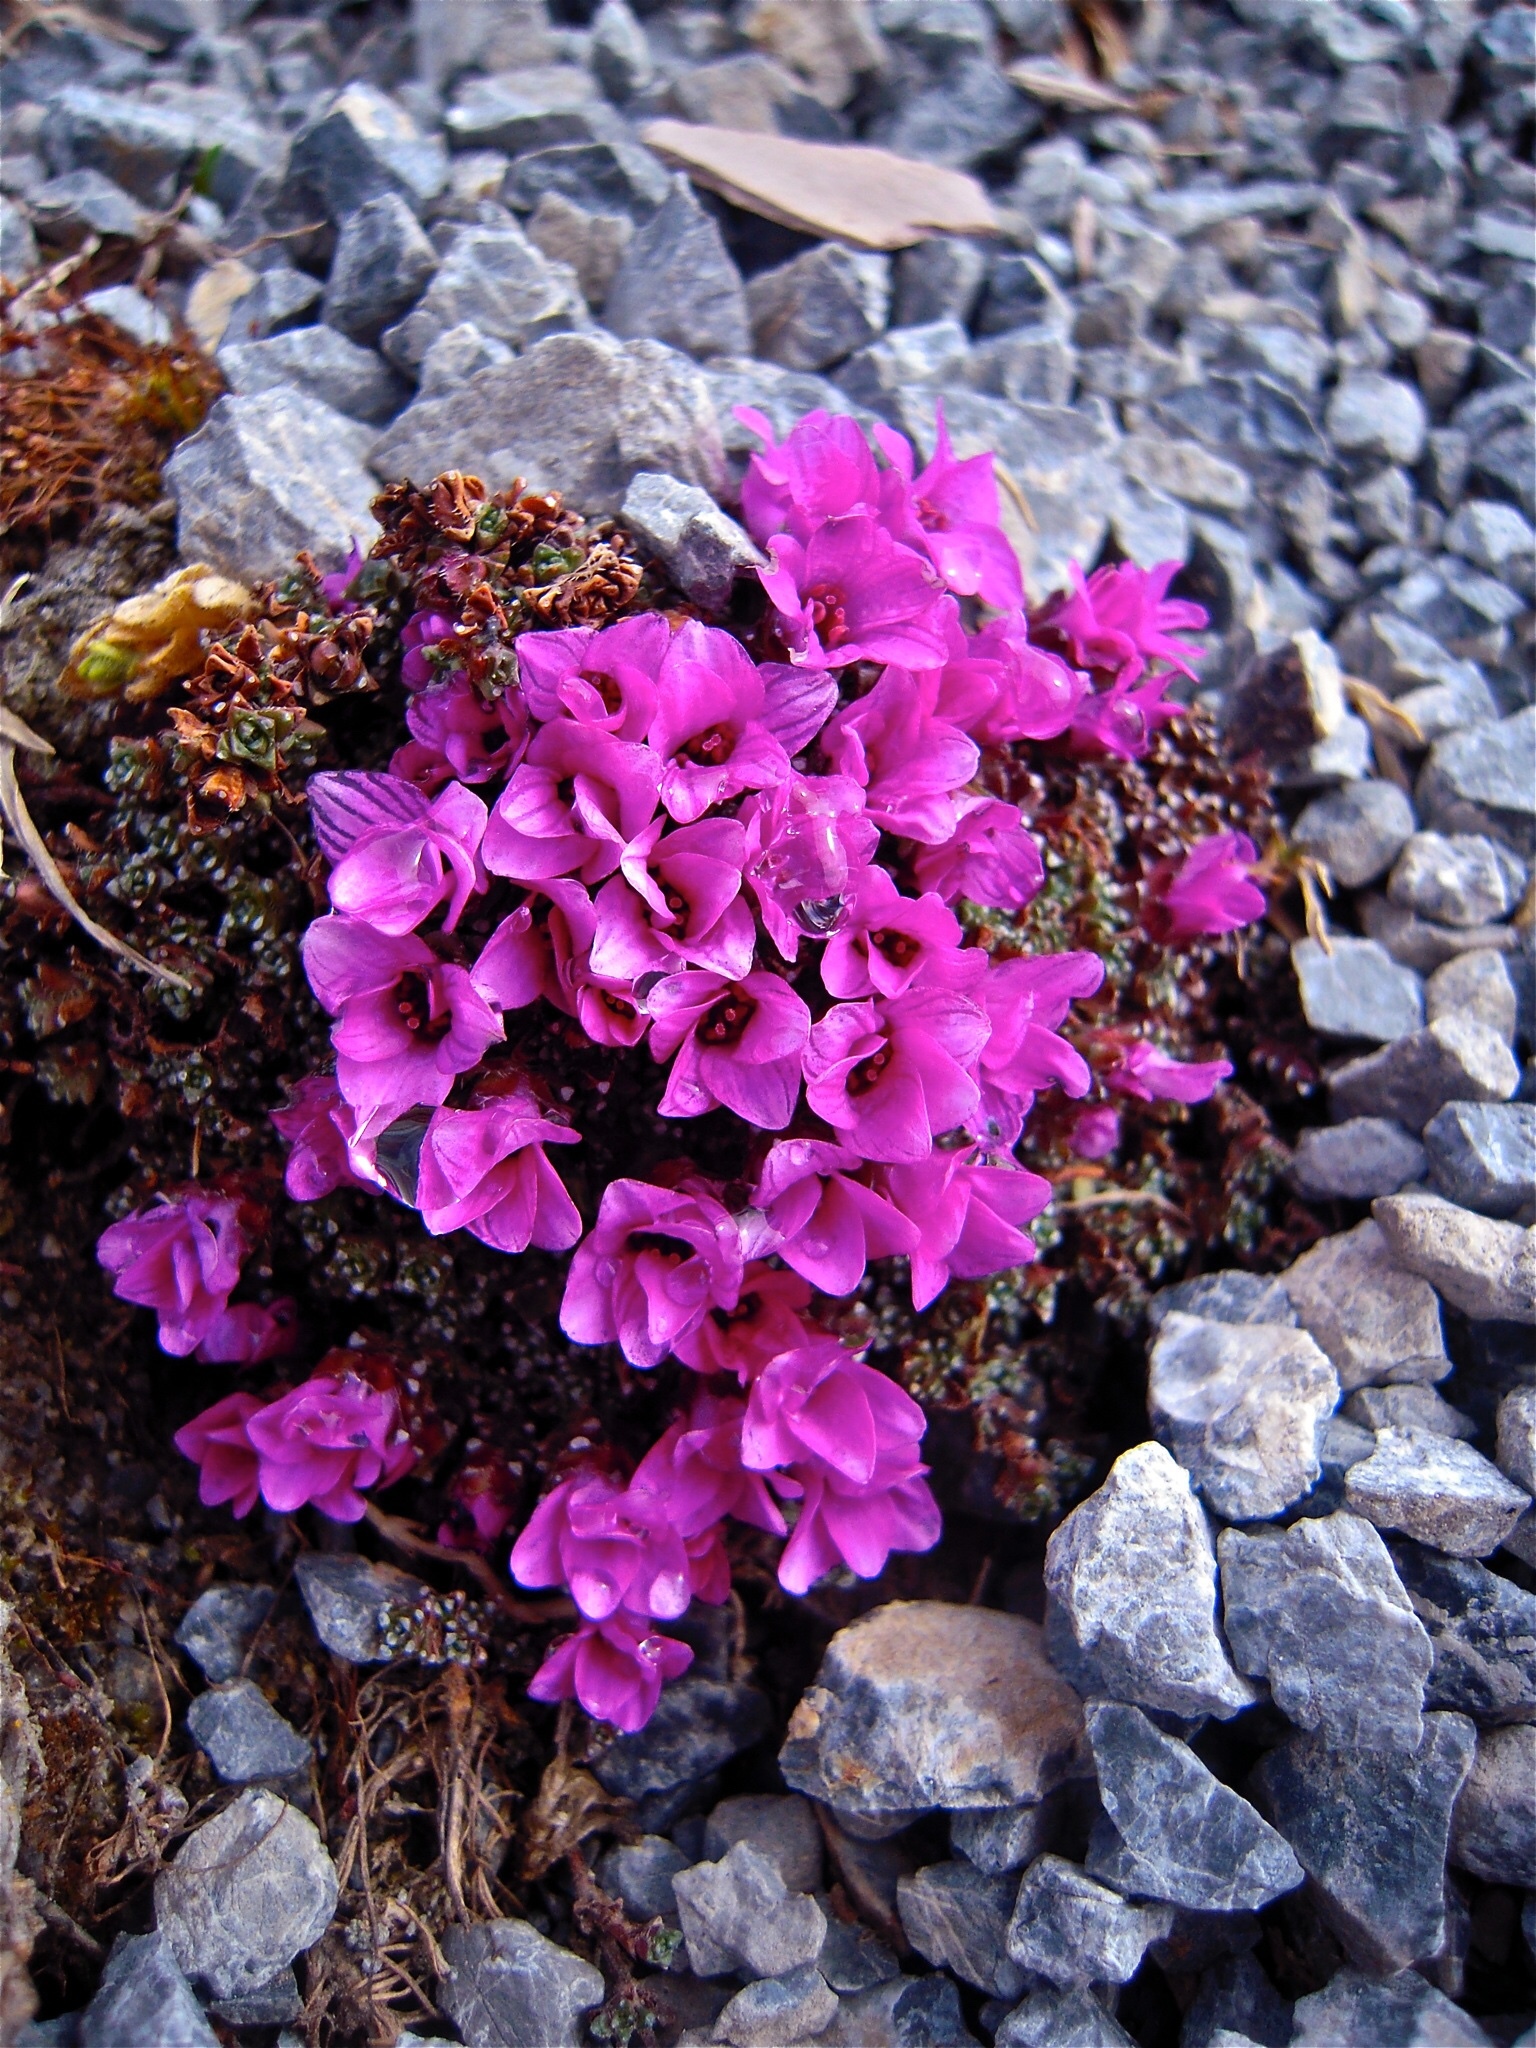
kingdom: Plantae
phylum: Tracheophyta
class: Magnoliopsida
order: Saxifragales
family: Saxifragaceae
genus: Saxifraga
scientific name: Saxifraga oppositifolia
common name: Purple saxifrage
